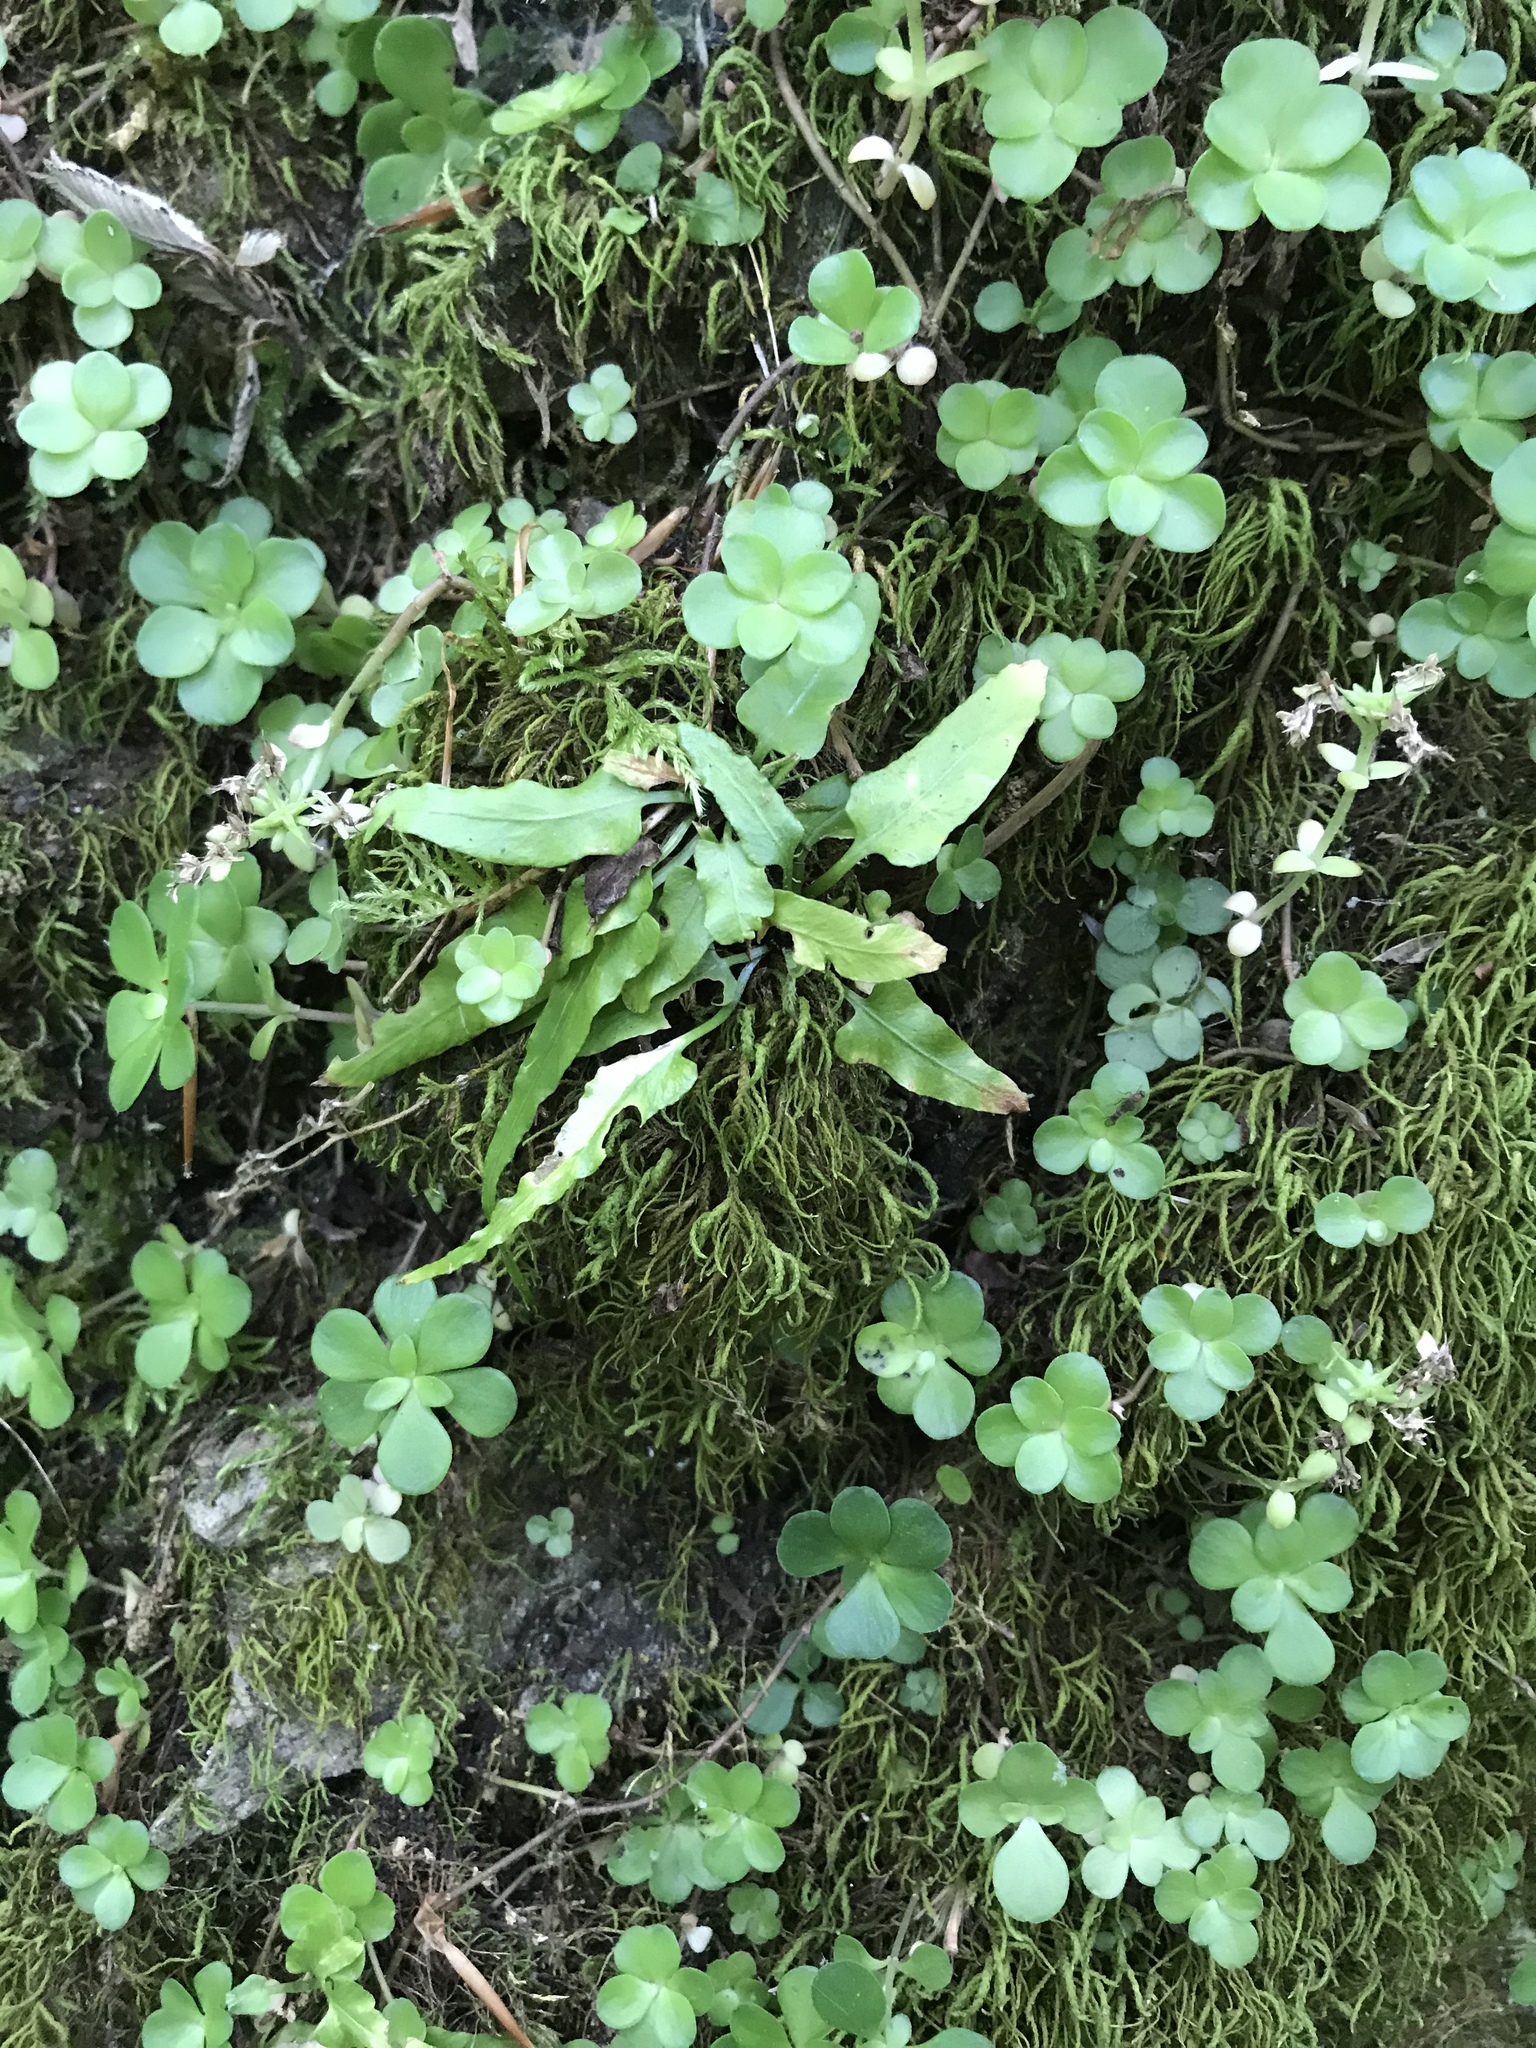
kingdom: Plantae
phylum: Tracheophyta
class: Polypodiopsida
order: Polypodiales
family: Aspleniaceae
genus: Asplenium
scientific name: Asplenium rhizophyllum
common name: Walking fern
